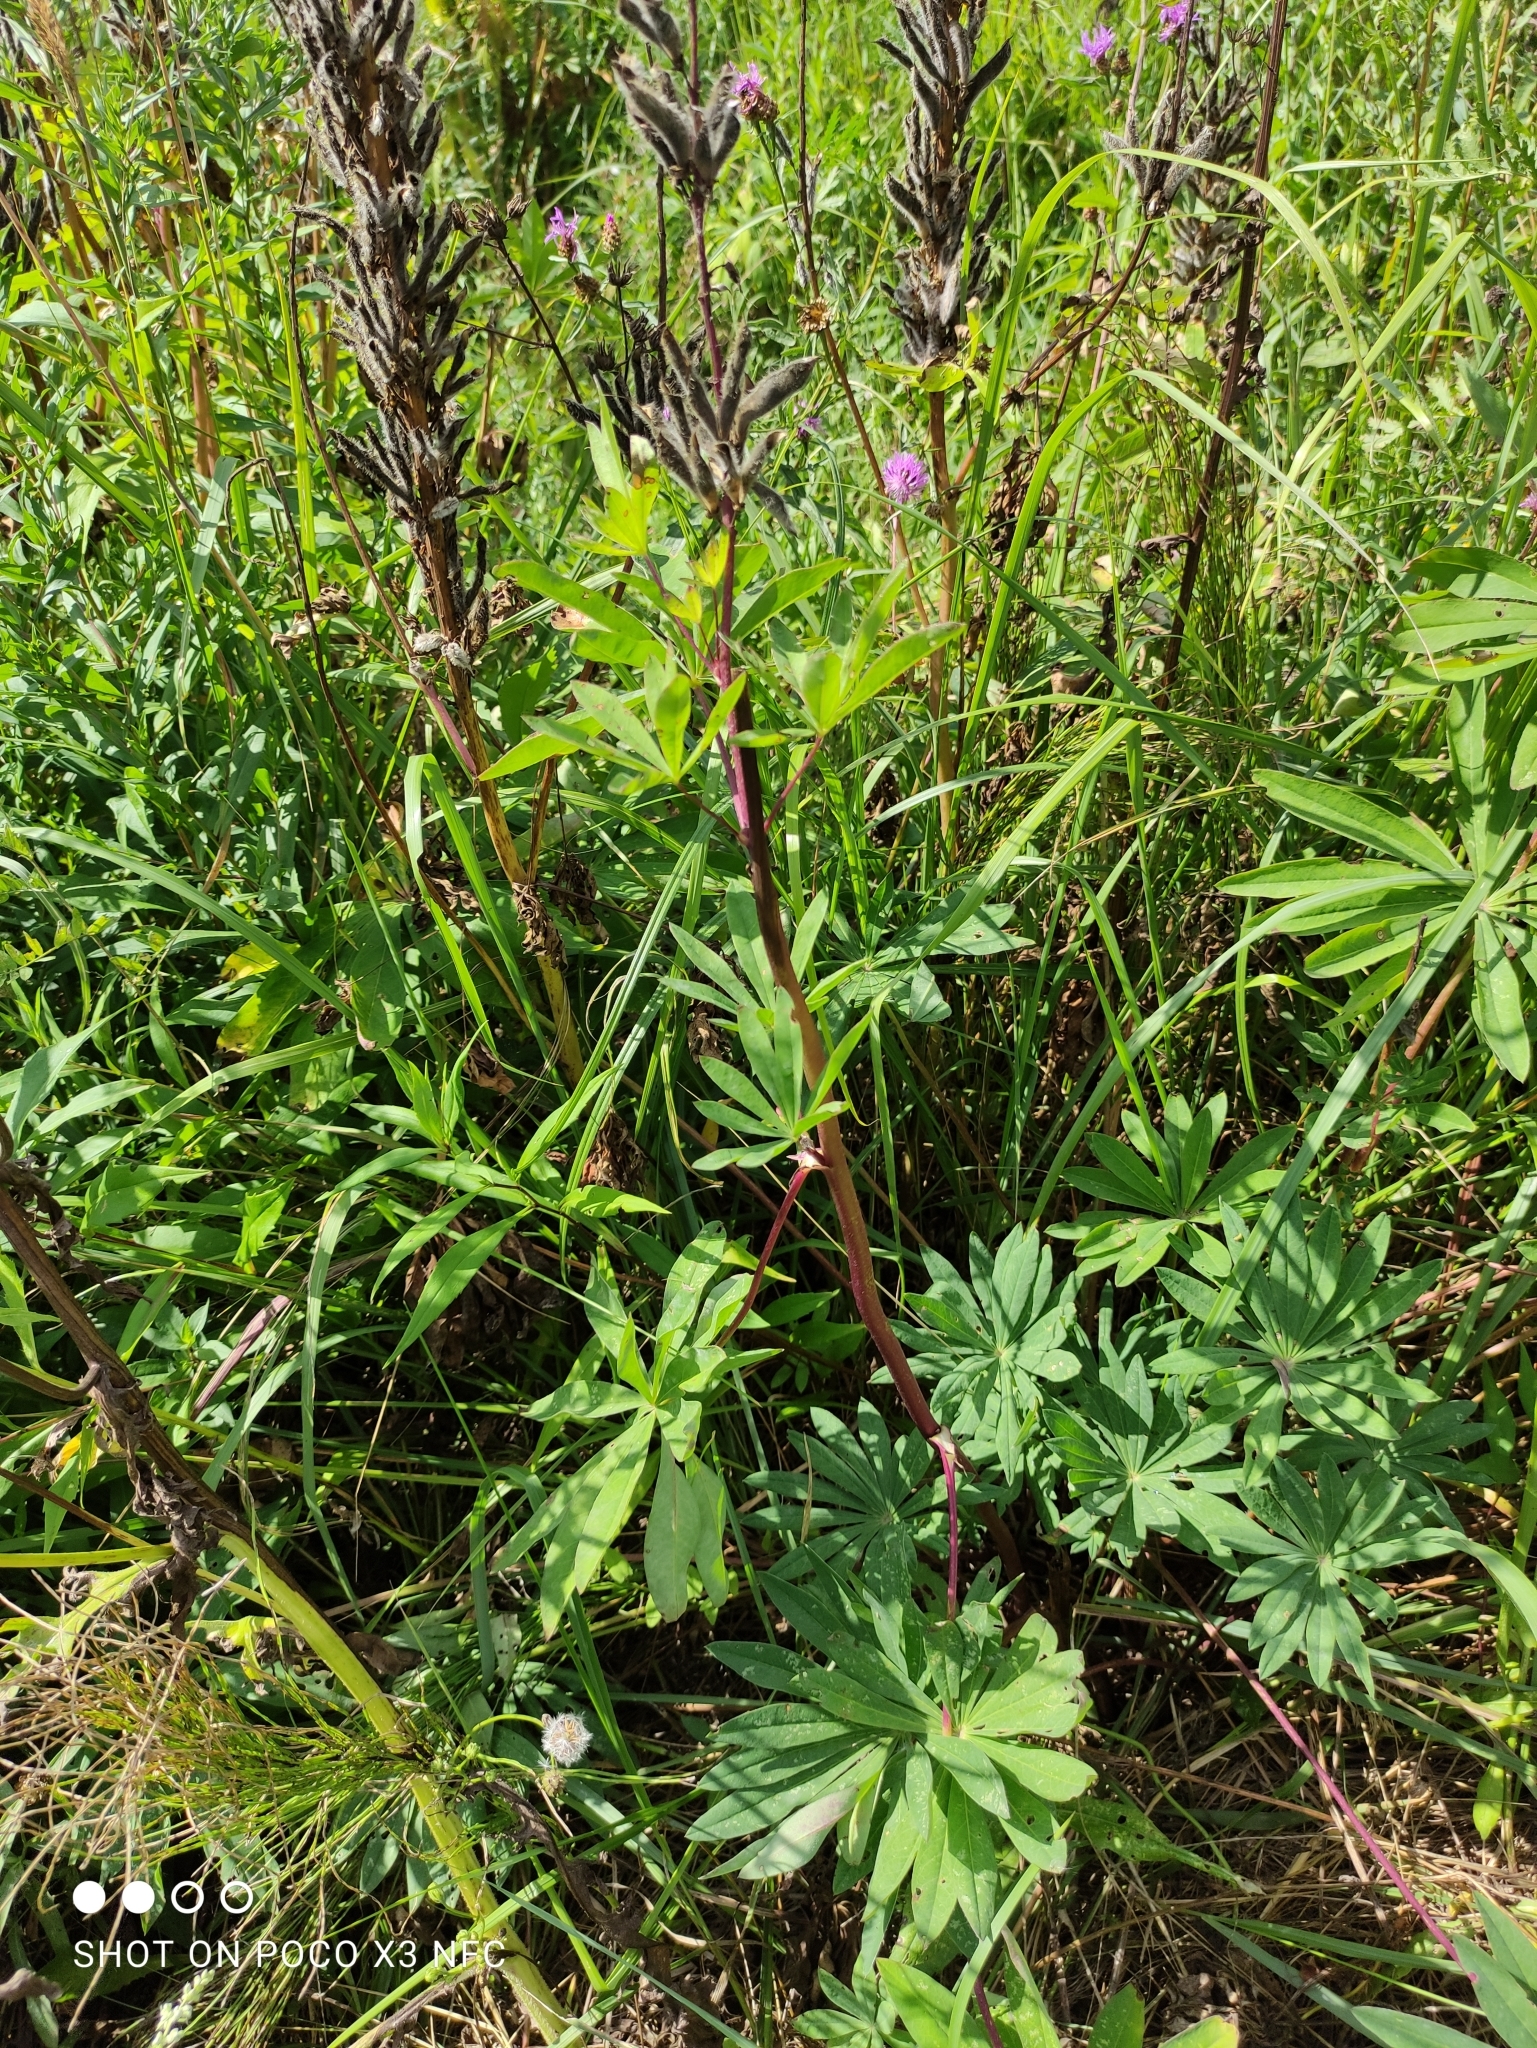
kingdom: Plantae
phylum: Tracheophyta
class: Magnoliopsida
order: Fabales
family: Fabaceae
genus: Lupinus
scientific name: Lupinus polyphyllus
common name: Garden lupin
